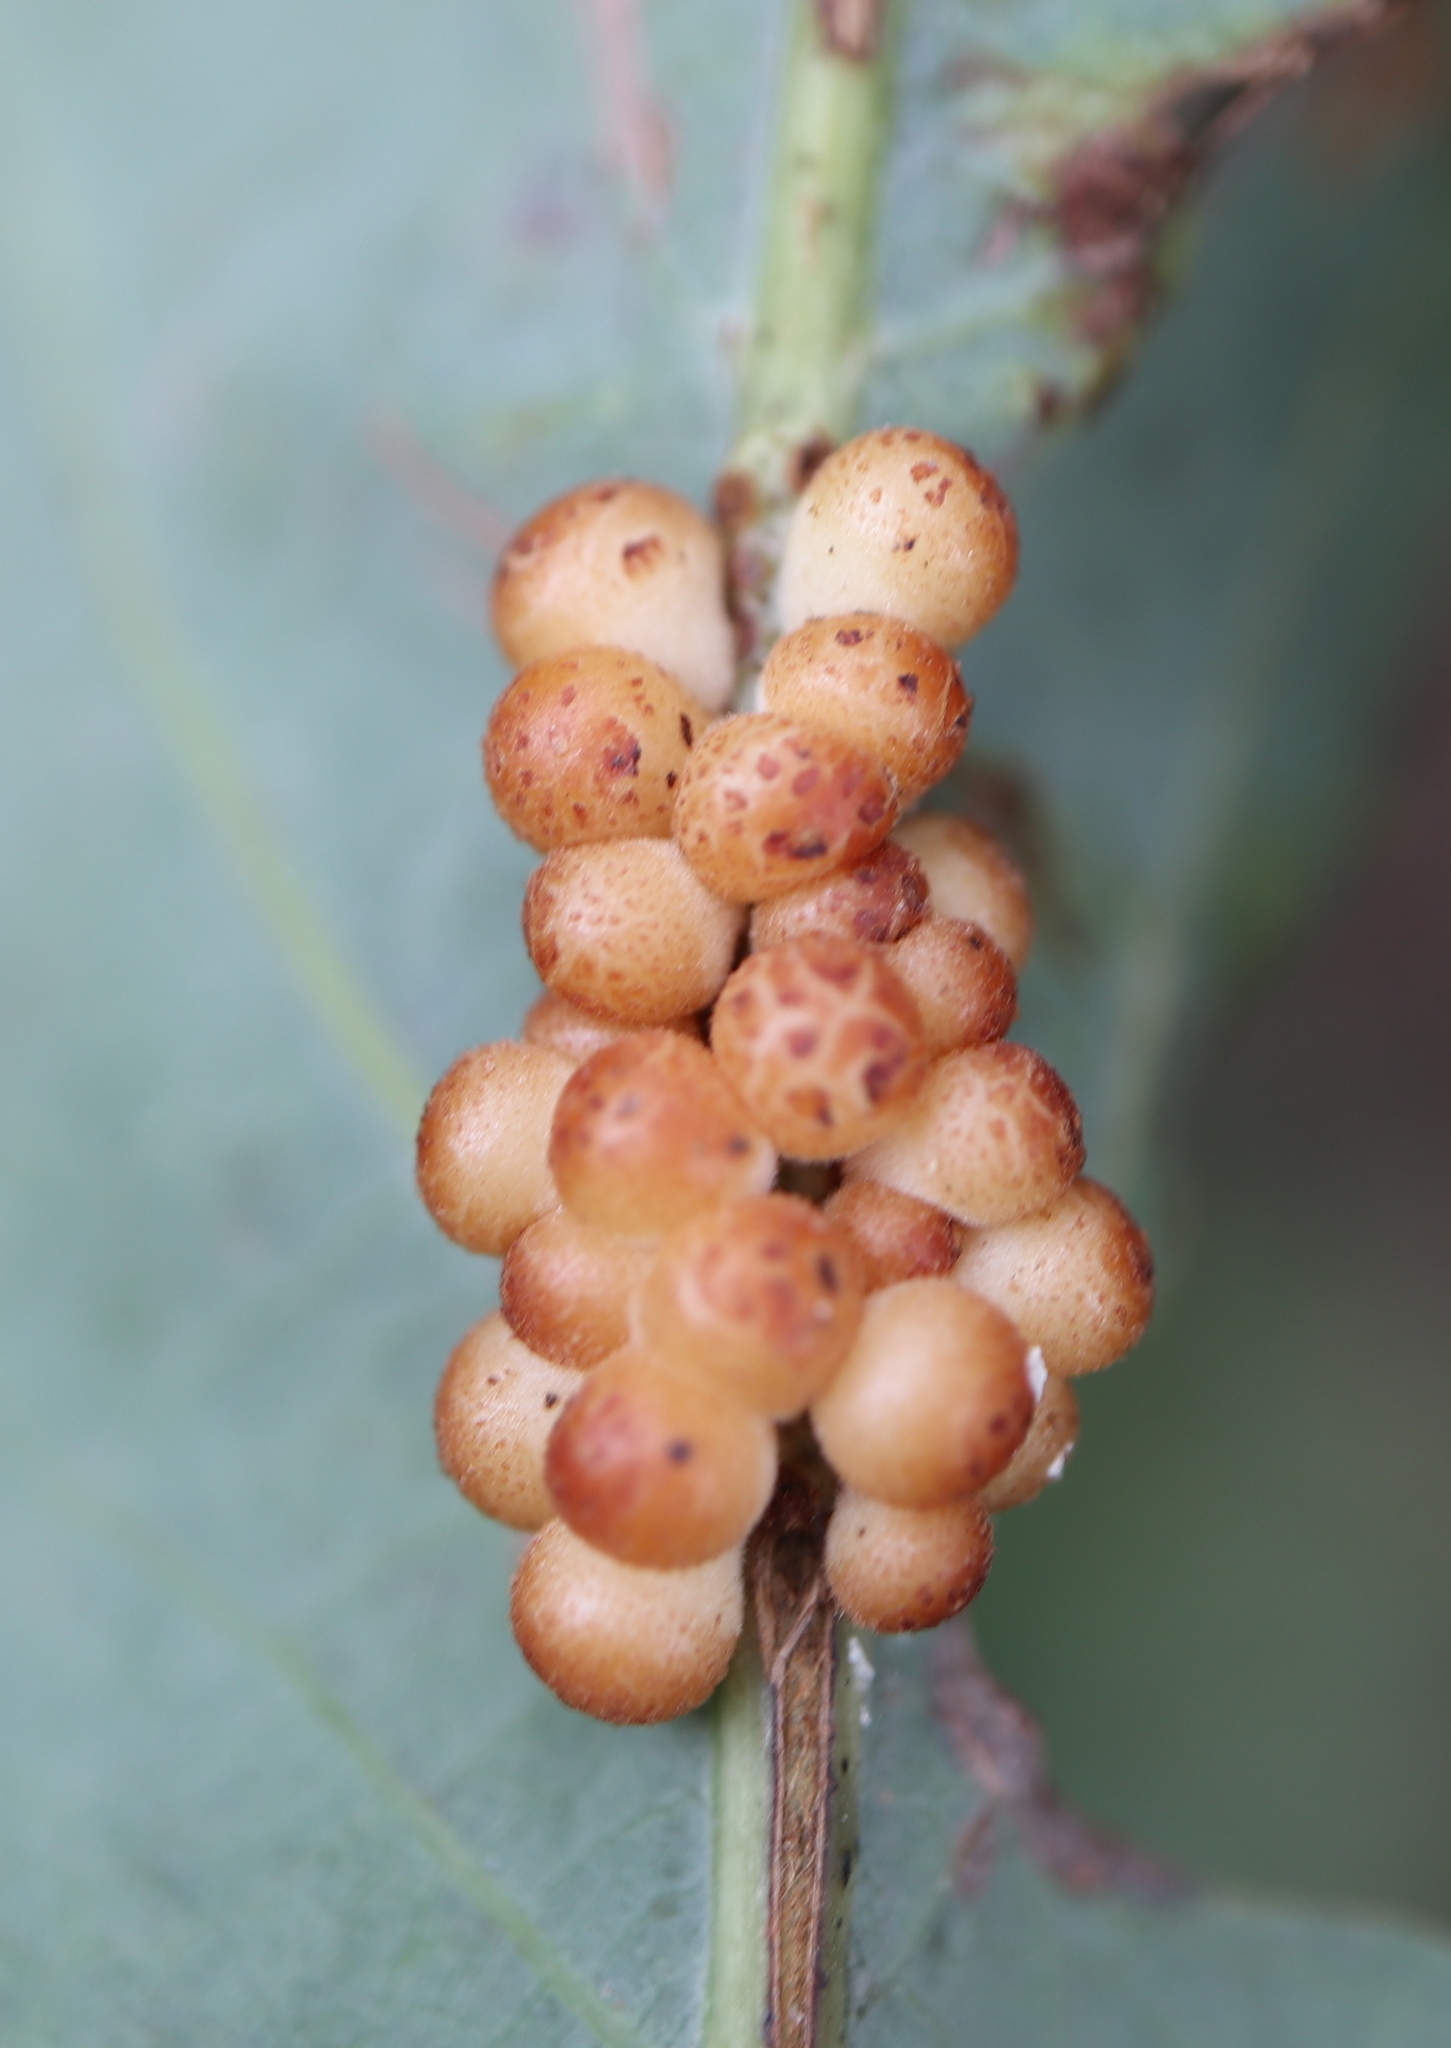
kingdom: Animalia
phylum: Arthropoda
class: Insecta
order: Hymenoptera
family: Cynipidae
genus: Andricus
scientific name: Andricus
